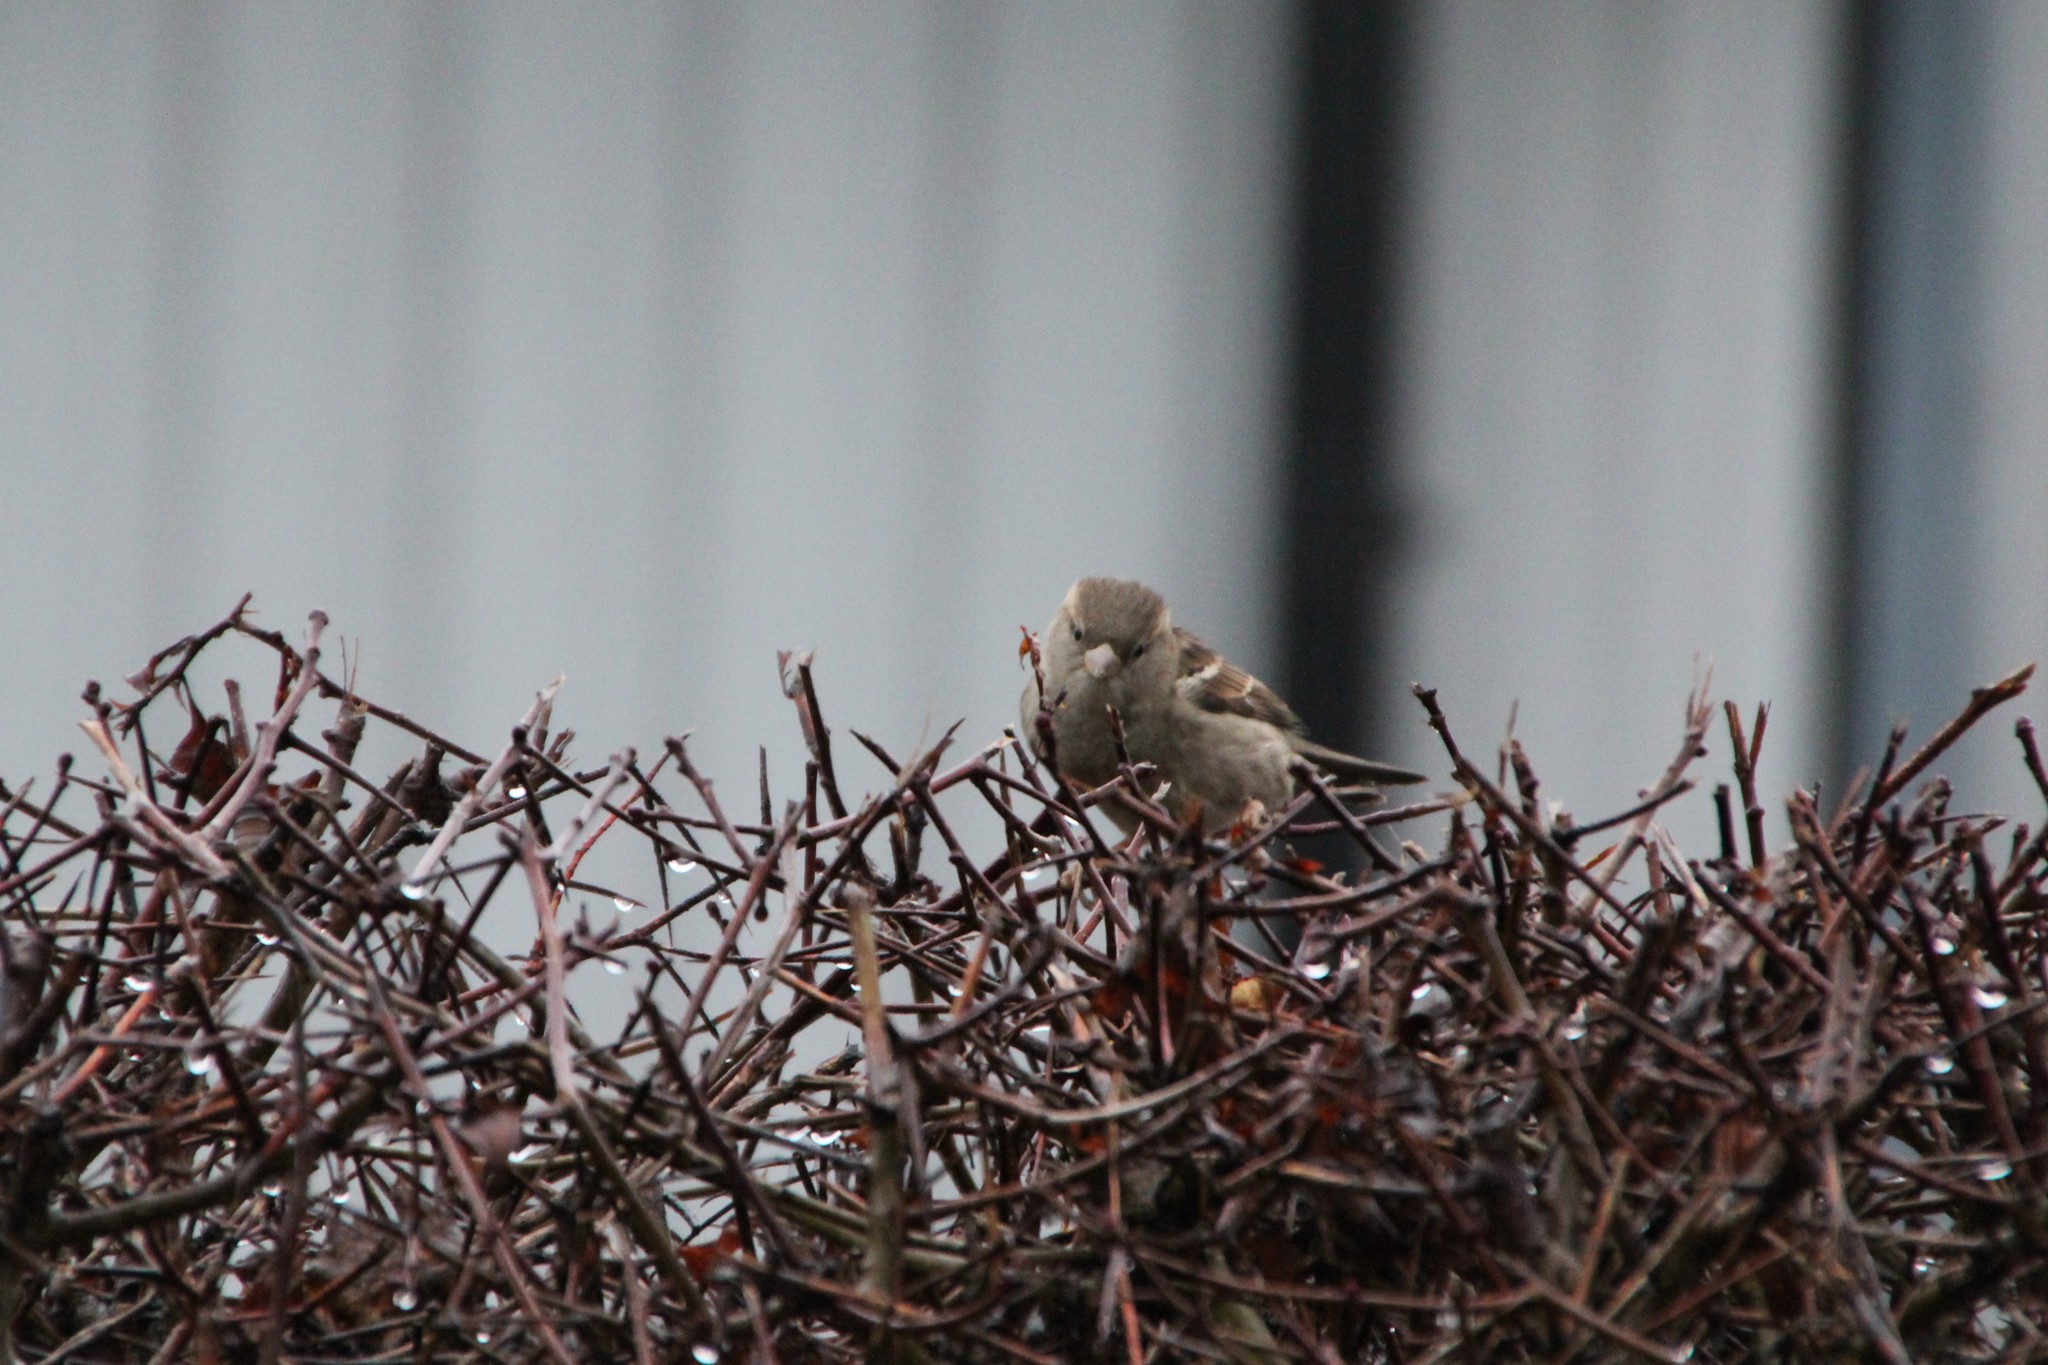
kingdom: Animalia
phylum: Chordata
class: Aves
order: Passeriformes
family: Passeridae
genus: Passer
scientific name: Passer domesticus
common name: House sparrow
